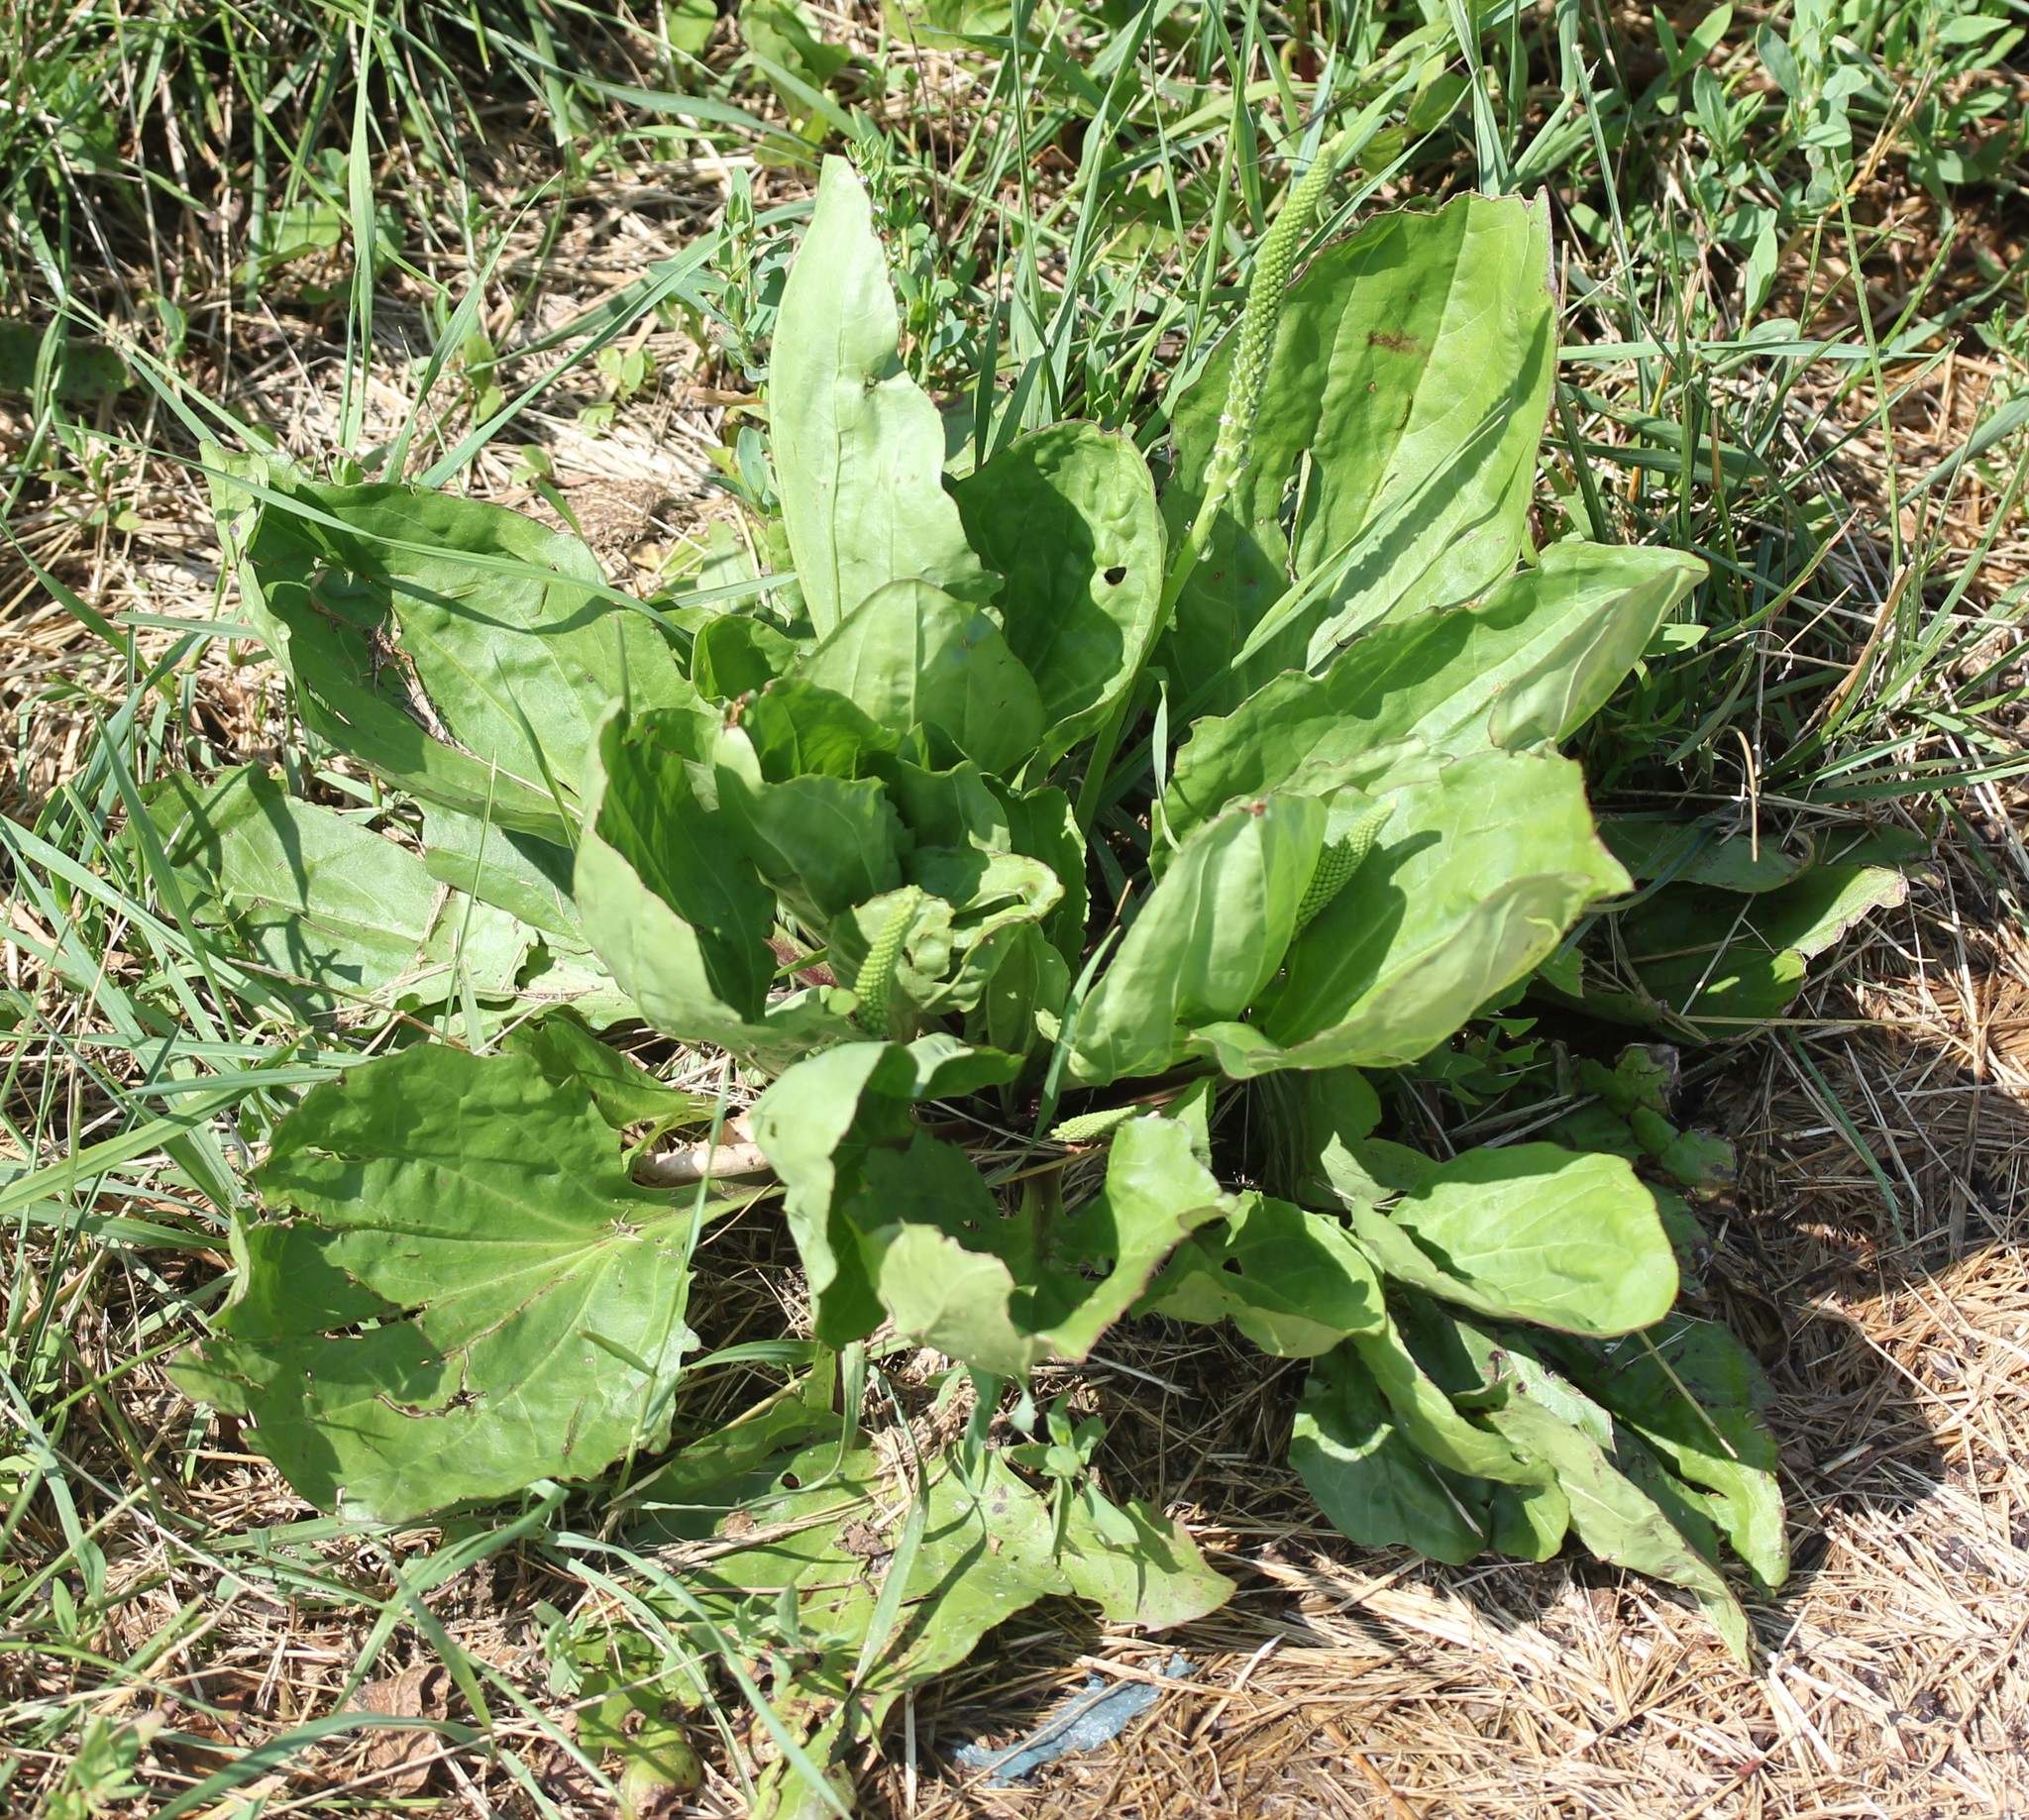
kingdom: Plantae
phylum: Tracheophyta
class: Magnoliopsida
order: Lamiales
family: Plantaginaceae
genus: Plantago
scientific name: Plantago rugelii
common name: American plantain
